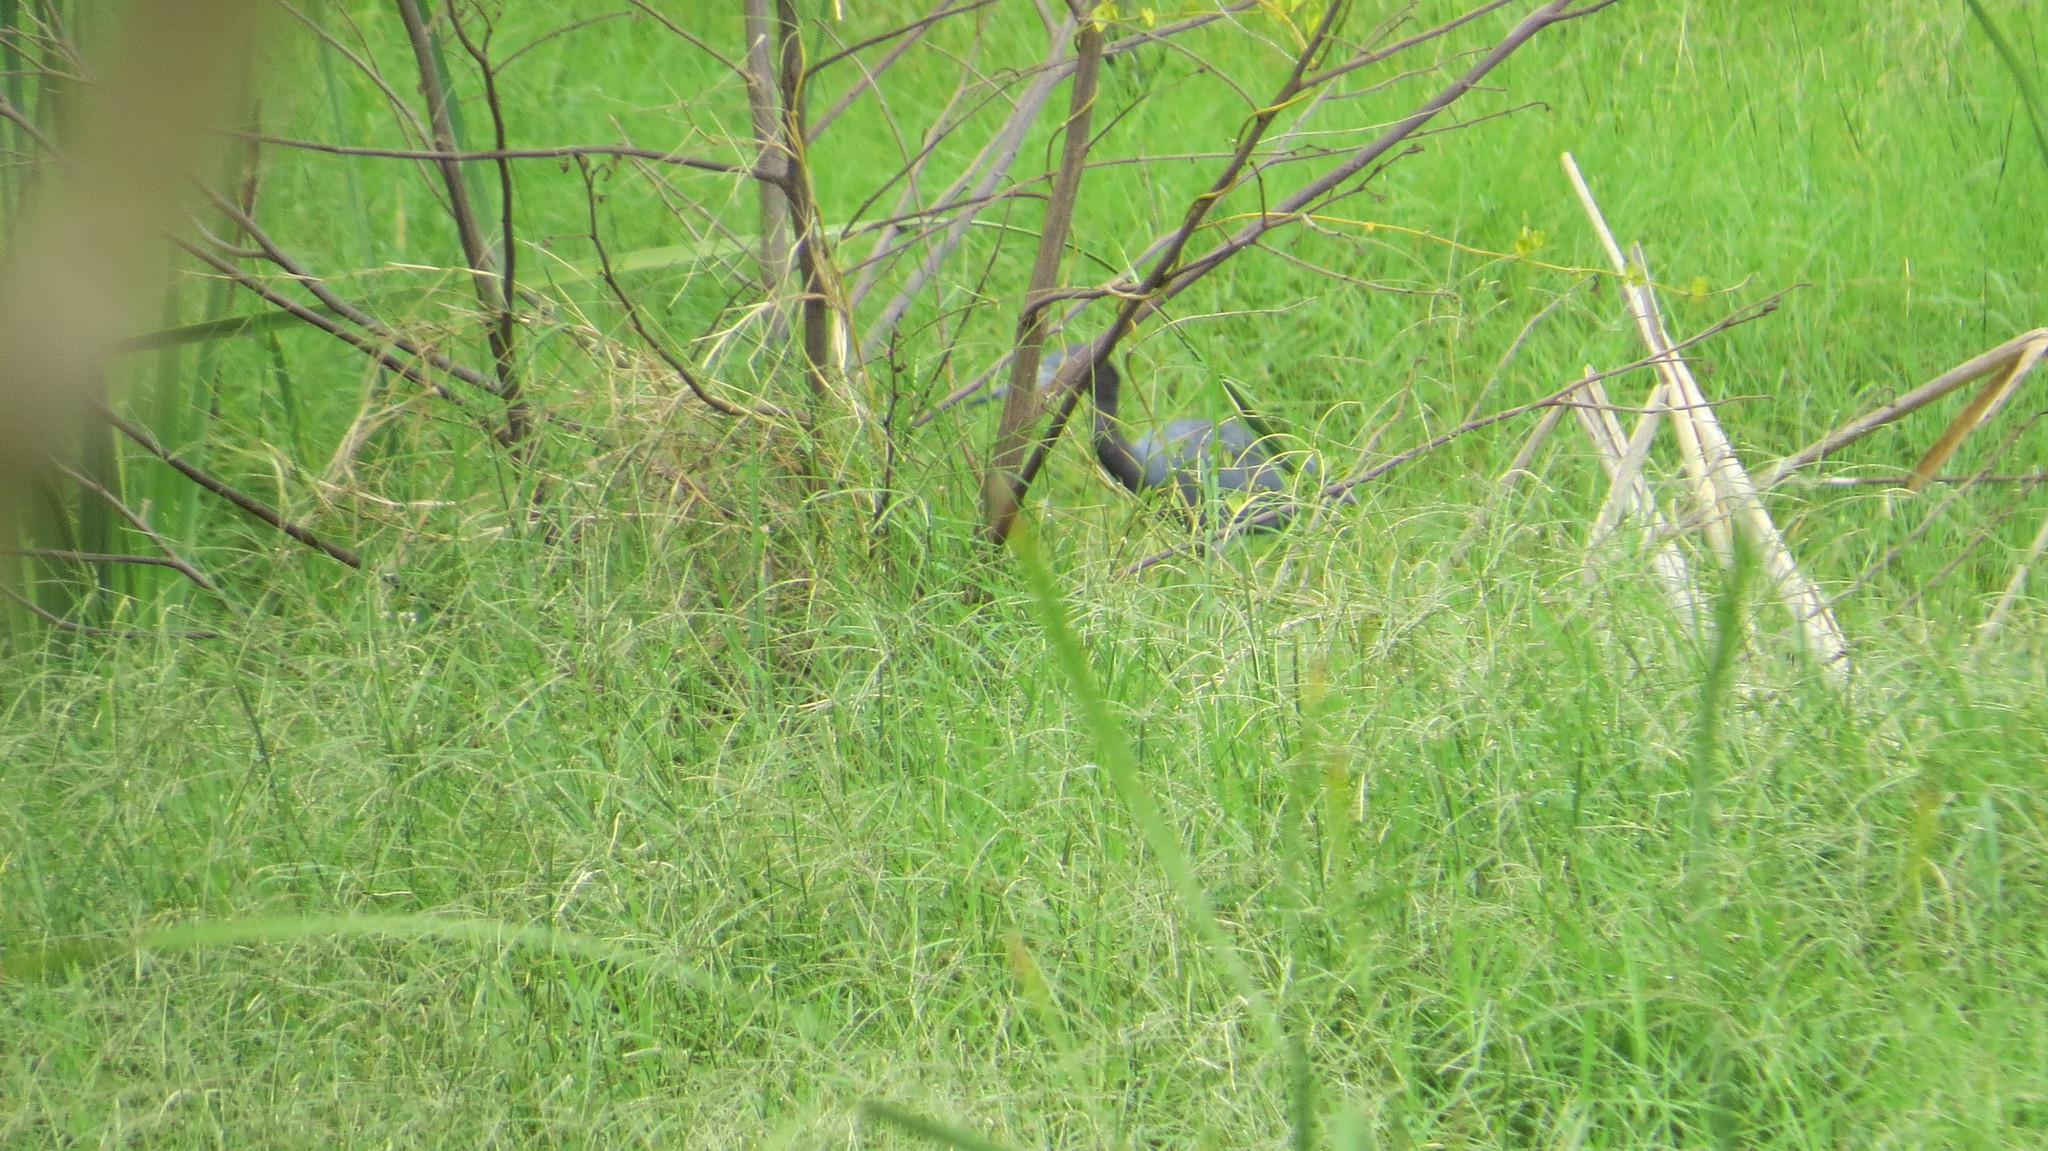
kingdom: Animalia
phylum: Chordata
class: Aves
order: Pelecaniformes
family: Ardeidae
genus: Egretta
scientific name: Egretta caerulea
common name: Little blue heron
